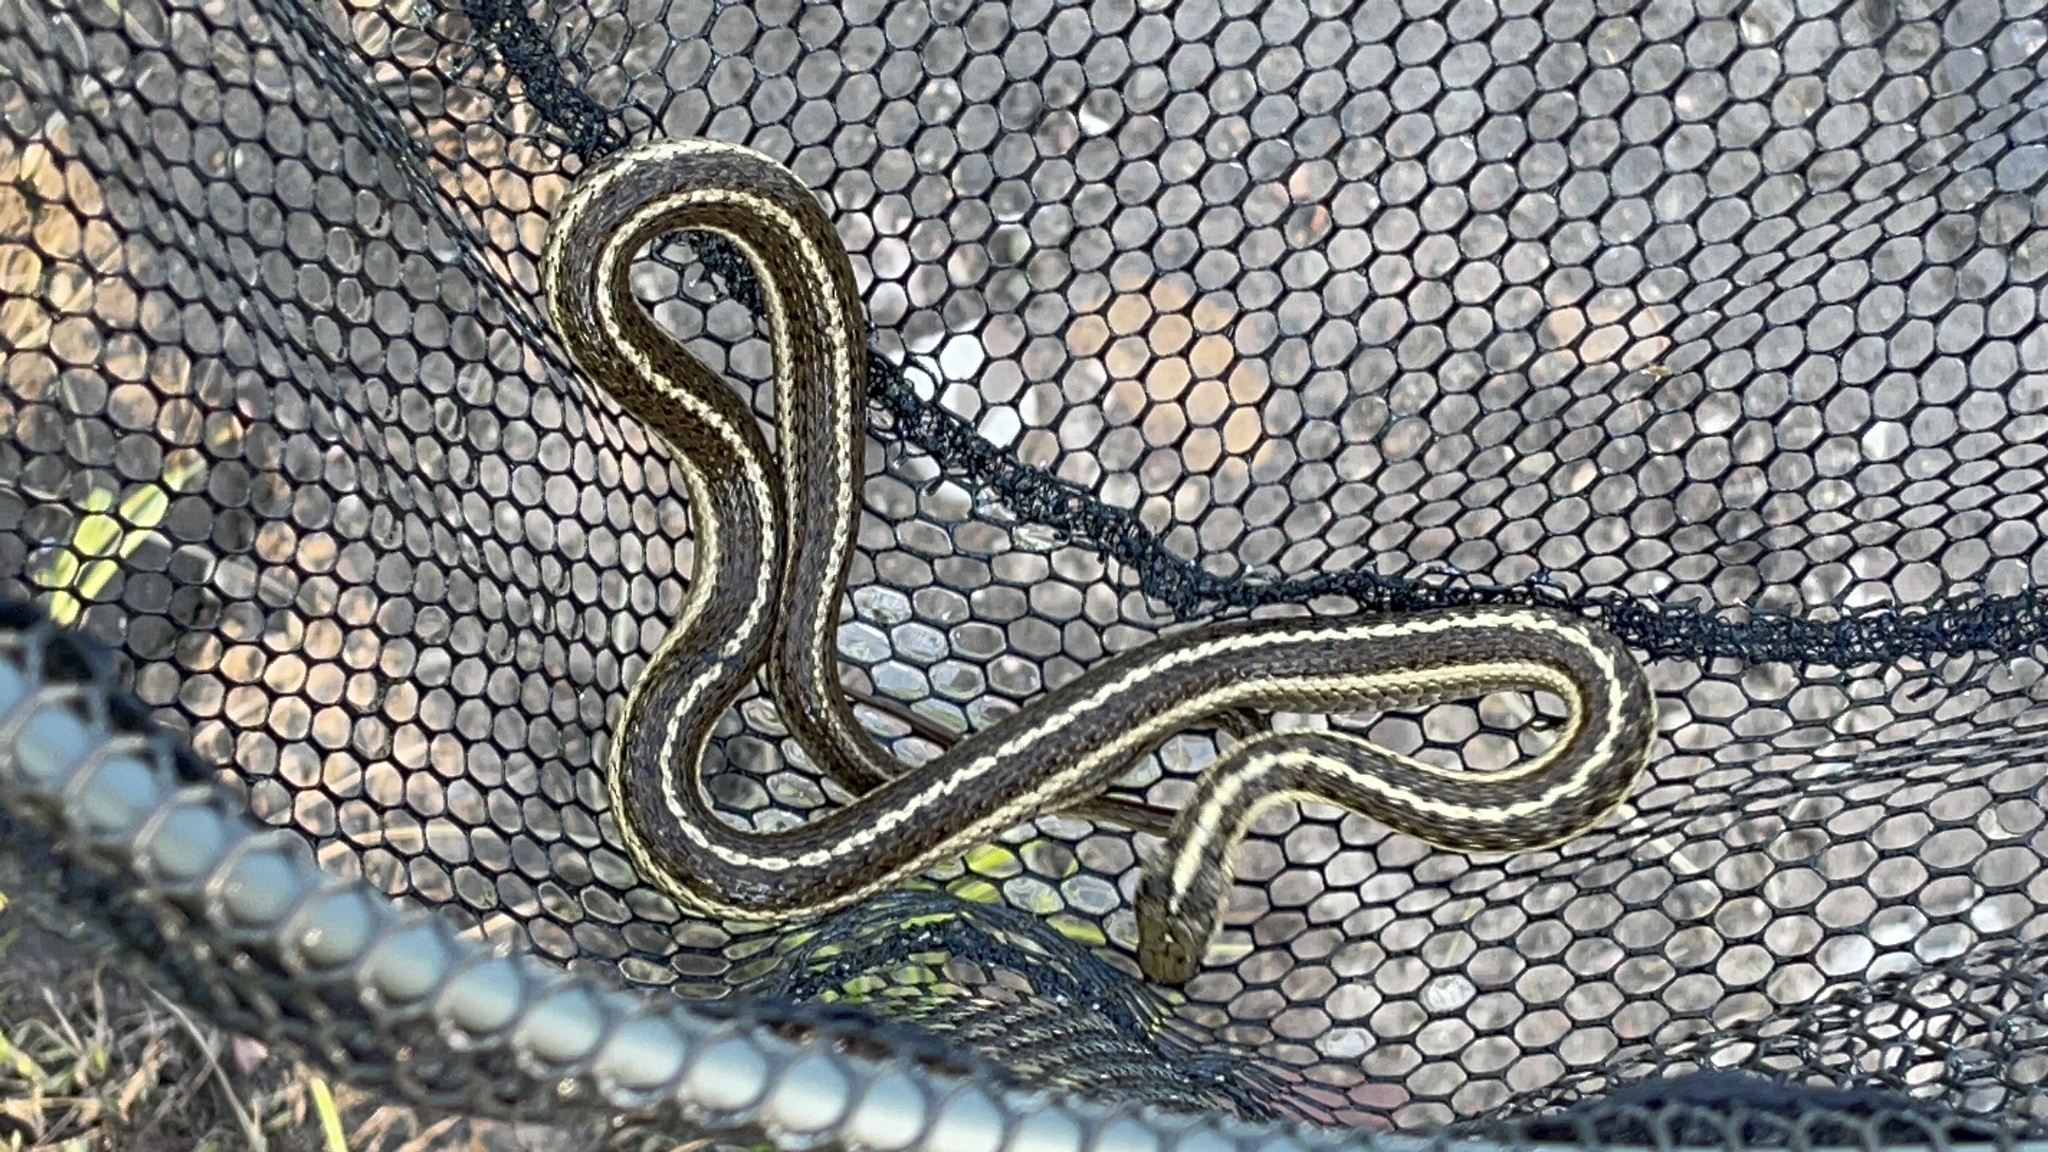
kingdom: Animalia
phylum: Chordata
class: Squamata
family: Colubridae
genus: Thamnophis
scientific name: Thamnophis elegans
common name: Western terrestrial garter snake
